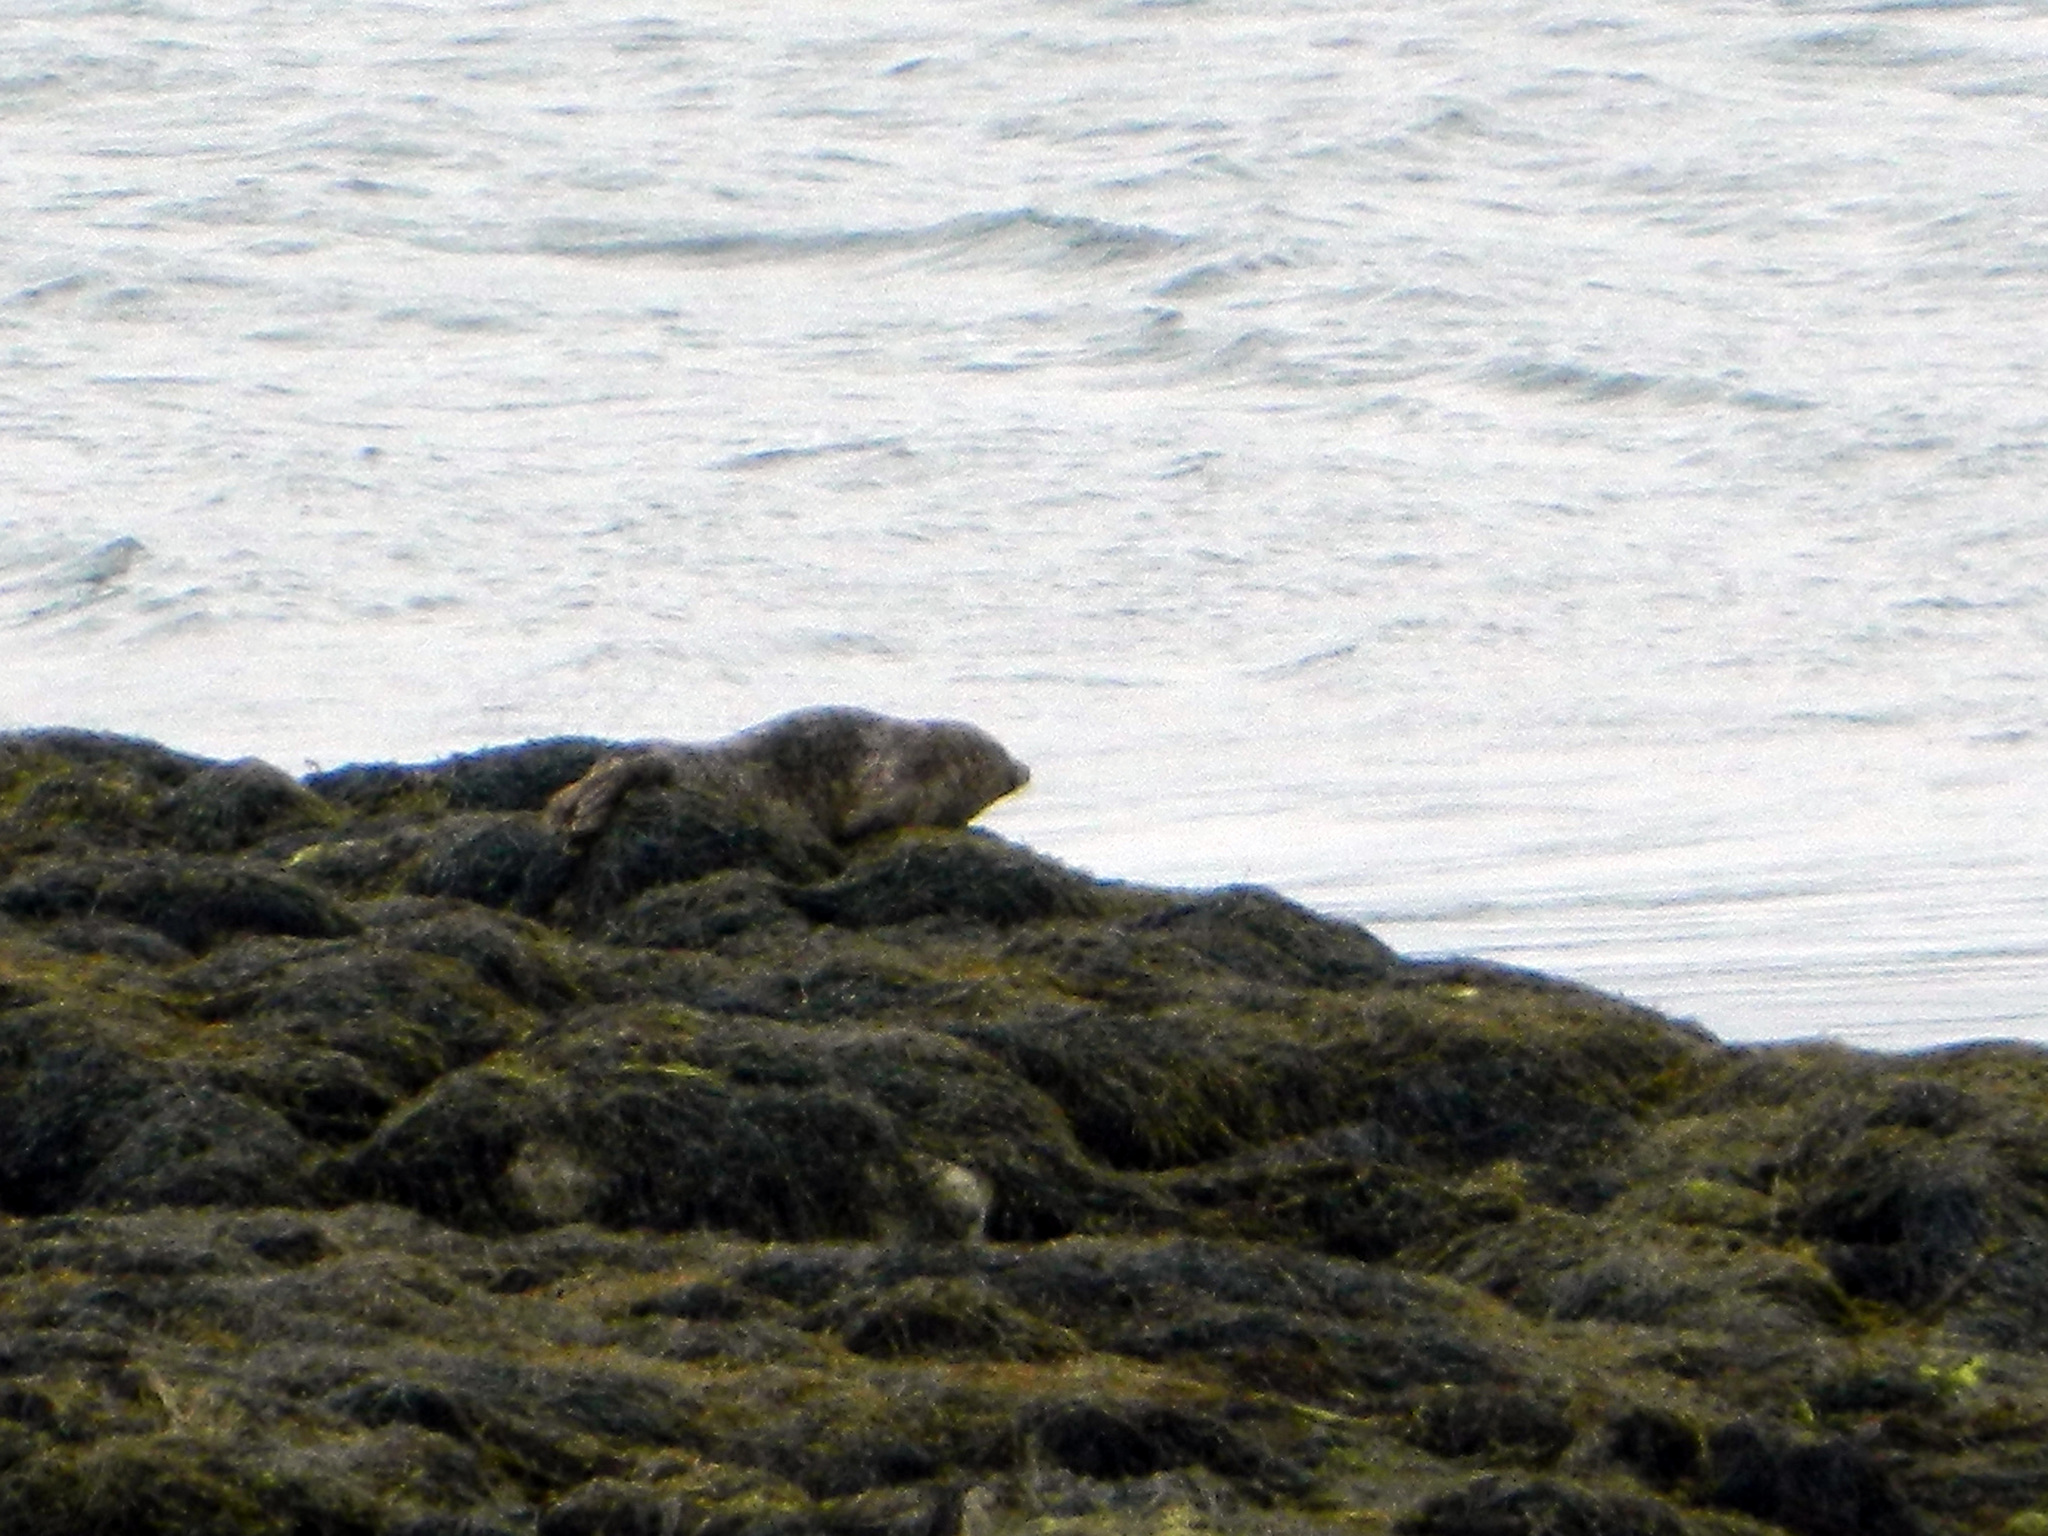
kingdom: Animalia
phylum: Chordata
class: Mammalia
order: Carnivora
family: Phocidae
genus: Phoca
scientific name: Phoca vitulina
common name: Harbor seal
